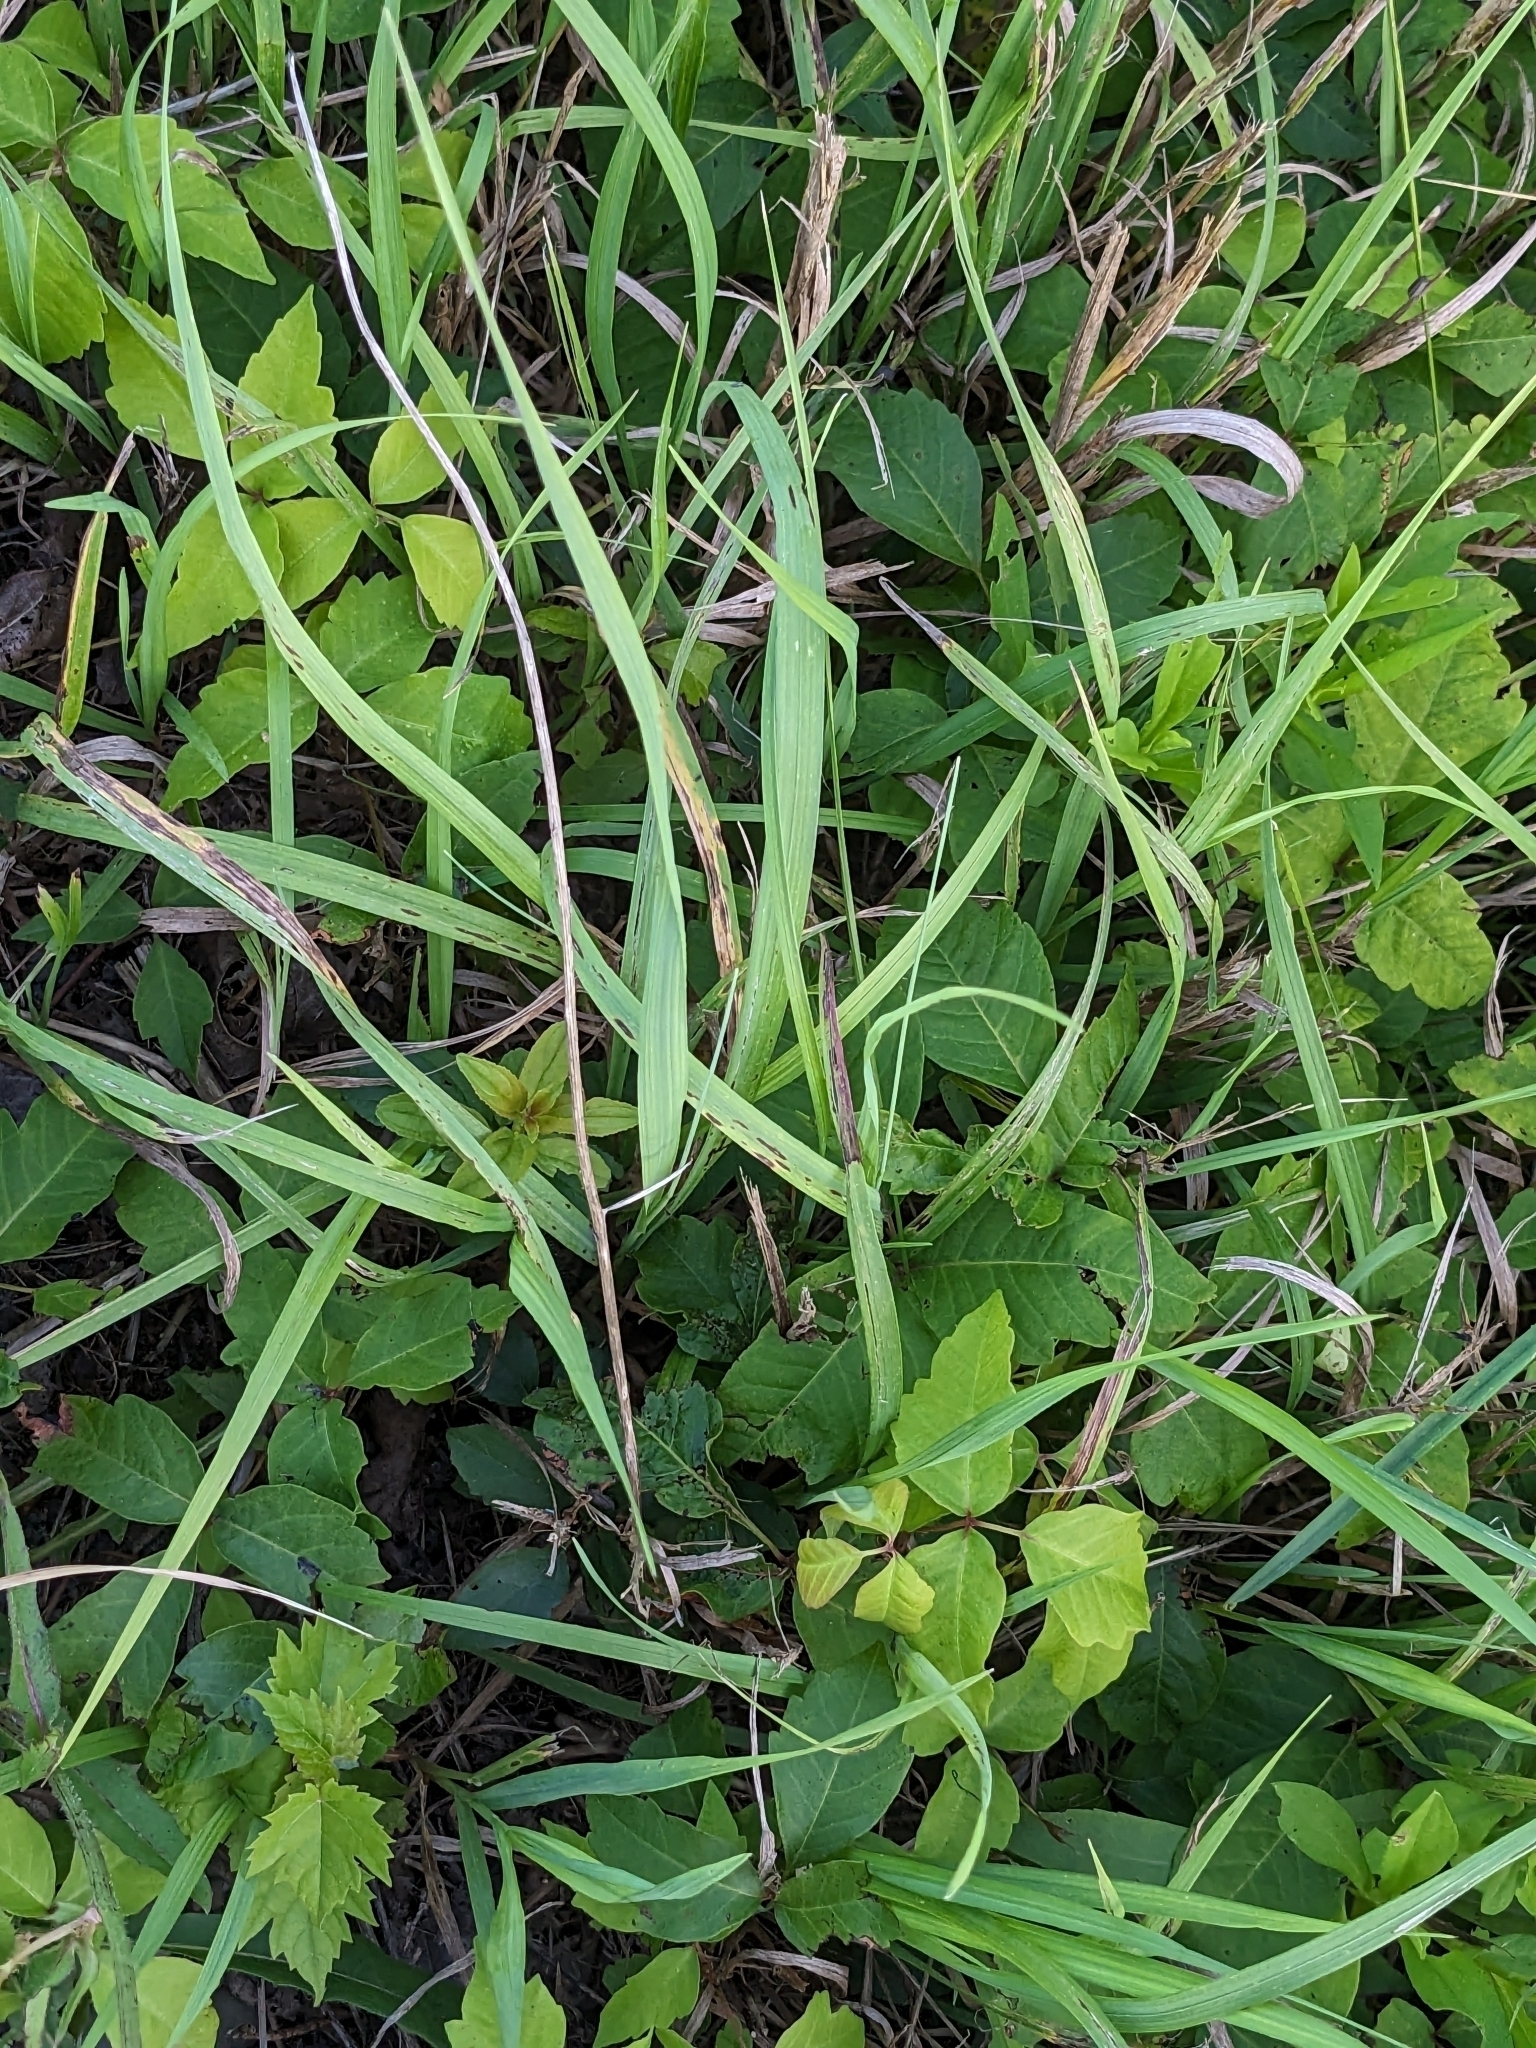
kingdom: Plantae
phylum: Tracheophyta
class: Magnoliopsida
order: Sapindales
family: Anacardiaceae
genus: Toxicodendron
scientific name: Toxicodendron radicans
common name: Poison ivy
